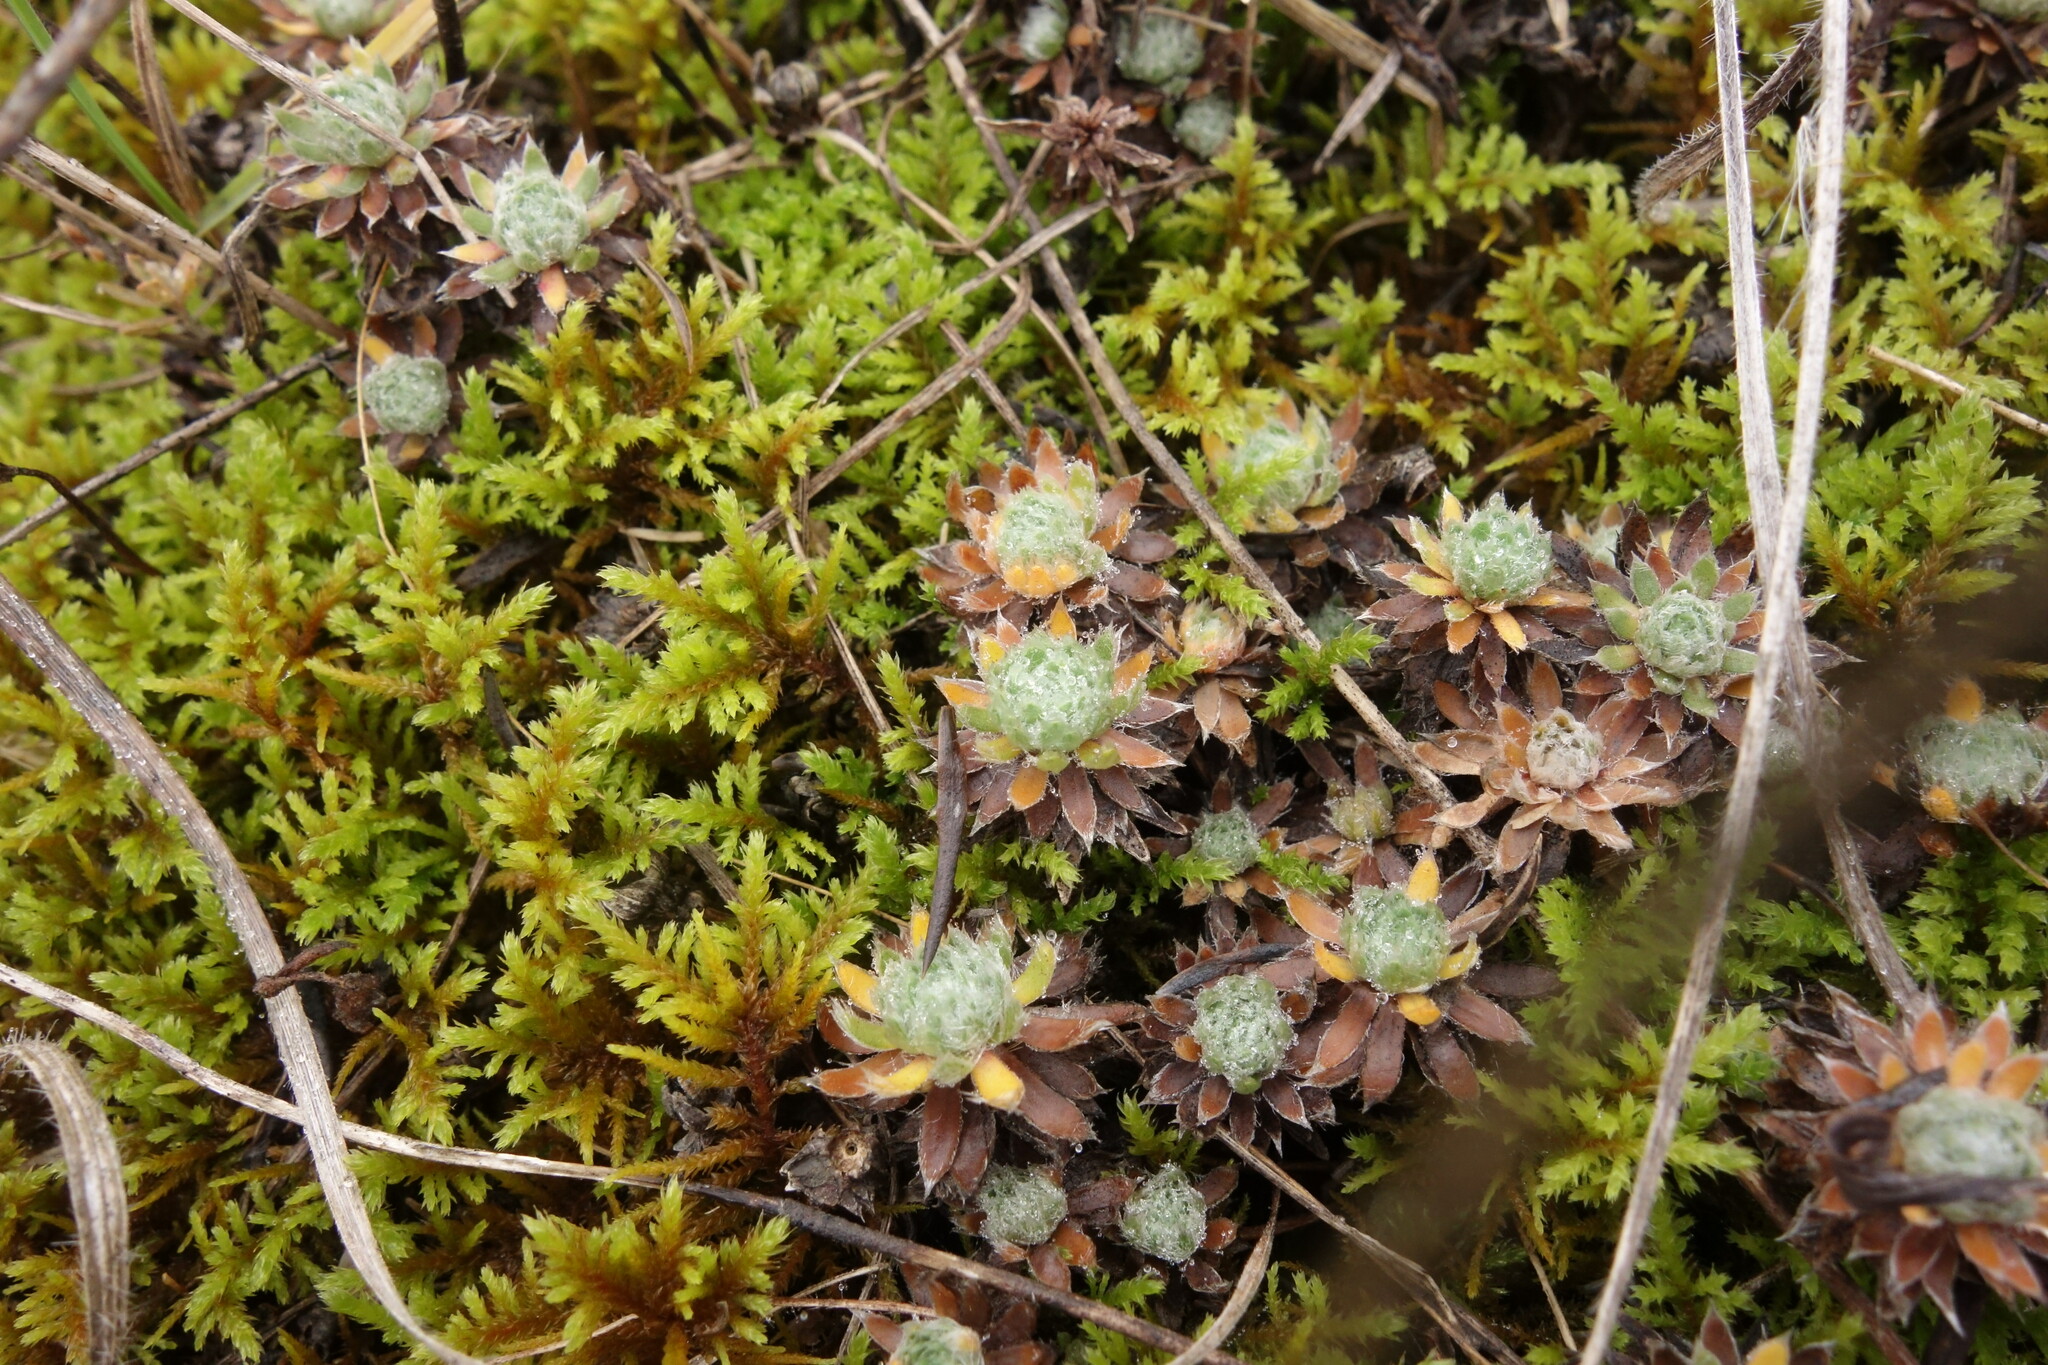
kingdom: Plantae
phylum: Tracheophyta
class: Magnoliopsida
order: Ericales
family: Primulaceae
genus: Androsace
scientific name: Androsace villosa
